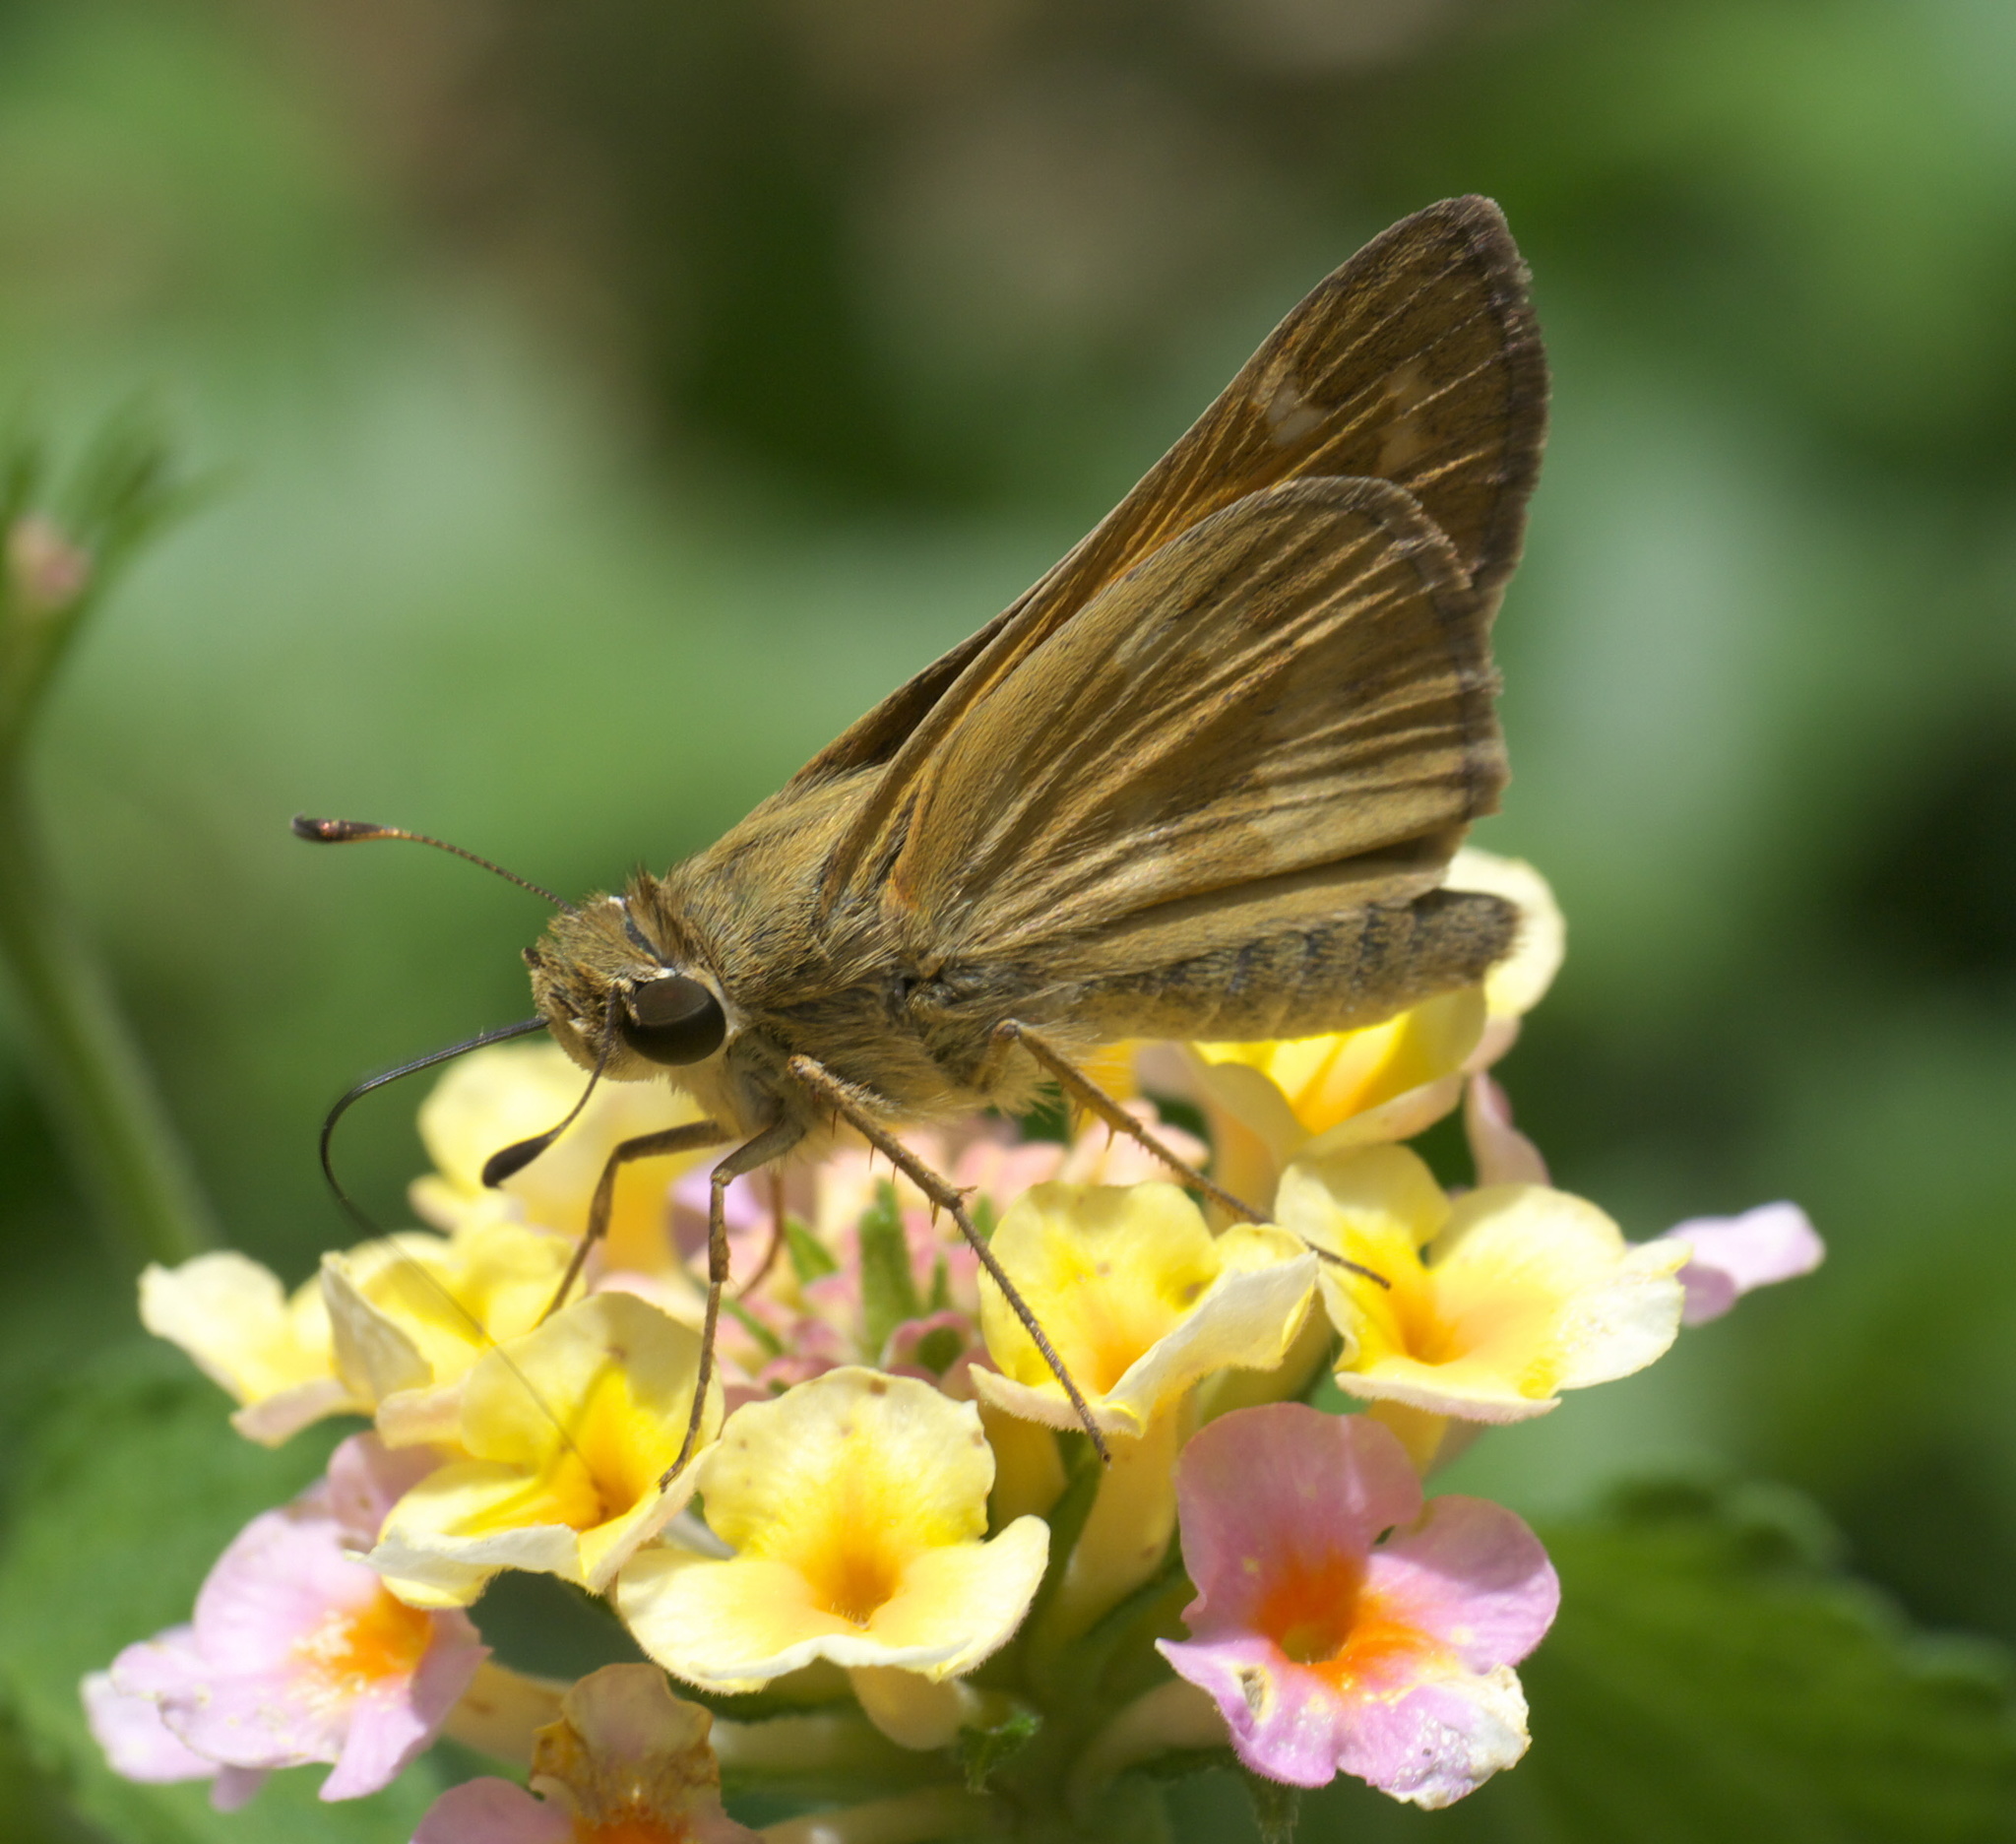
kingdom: Animalia
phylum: Arthropoda
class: Insecta
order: Lepidoptera
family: Hesperiidae
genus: Atalopedes
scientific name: Atalopedes
